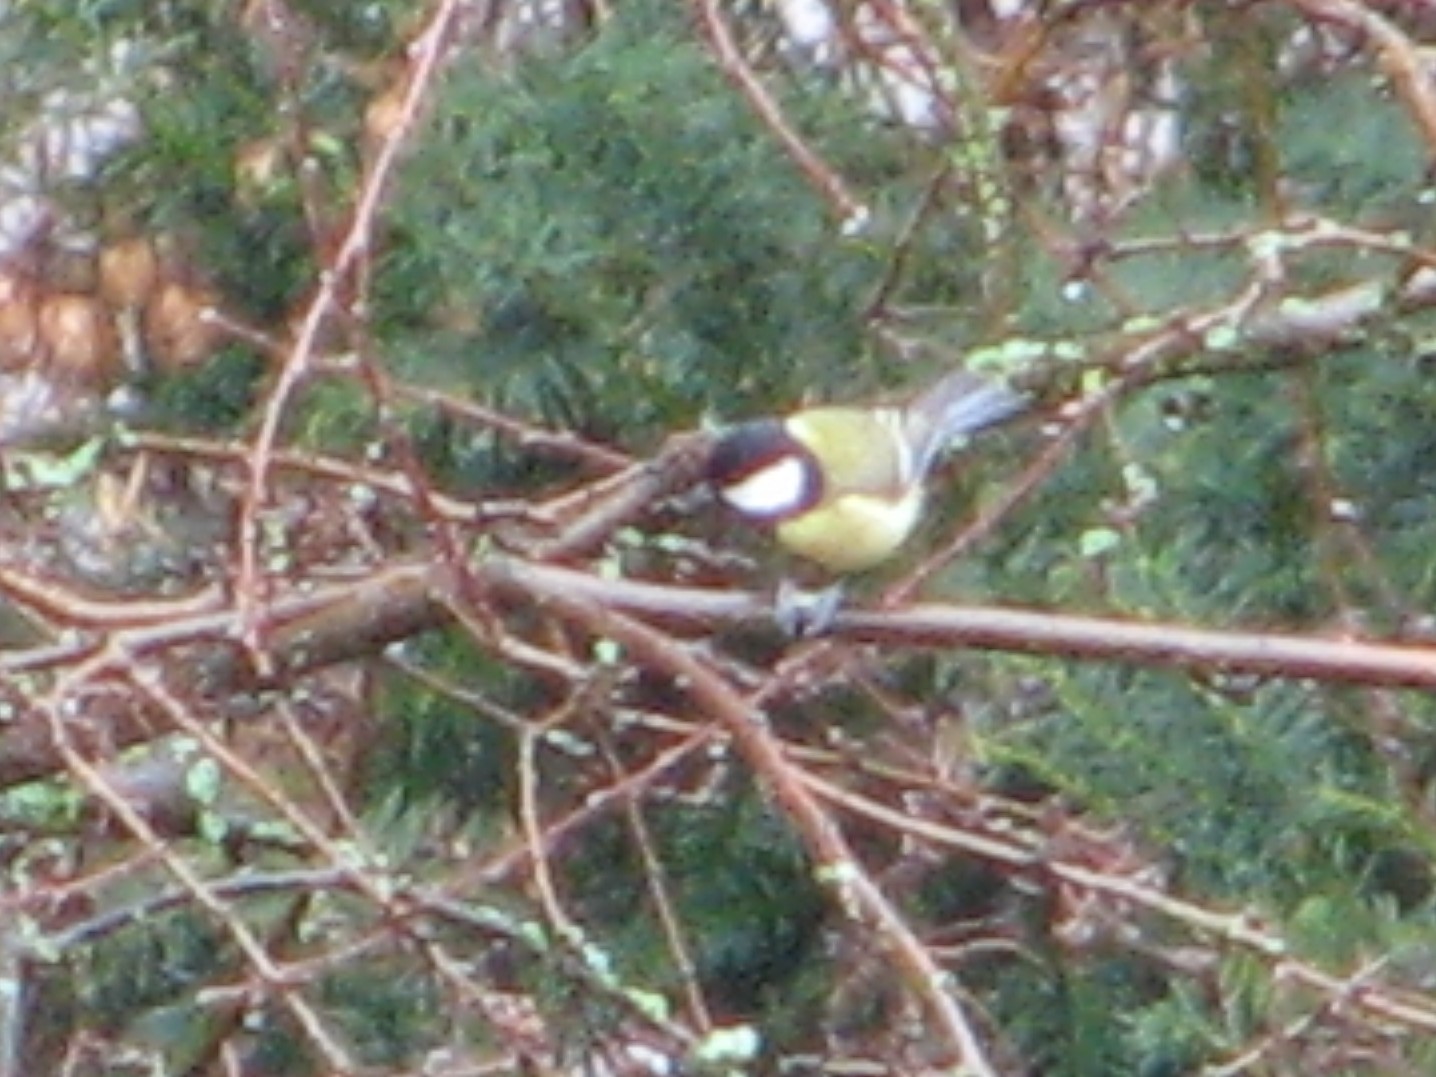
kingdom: Animalia
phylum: Chordata
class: Aves
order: Passeriformes
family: Paridae
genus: Parus
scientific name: Parus major
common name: Great tit
